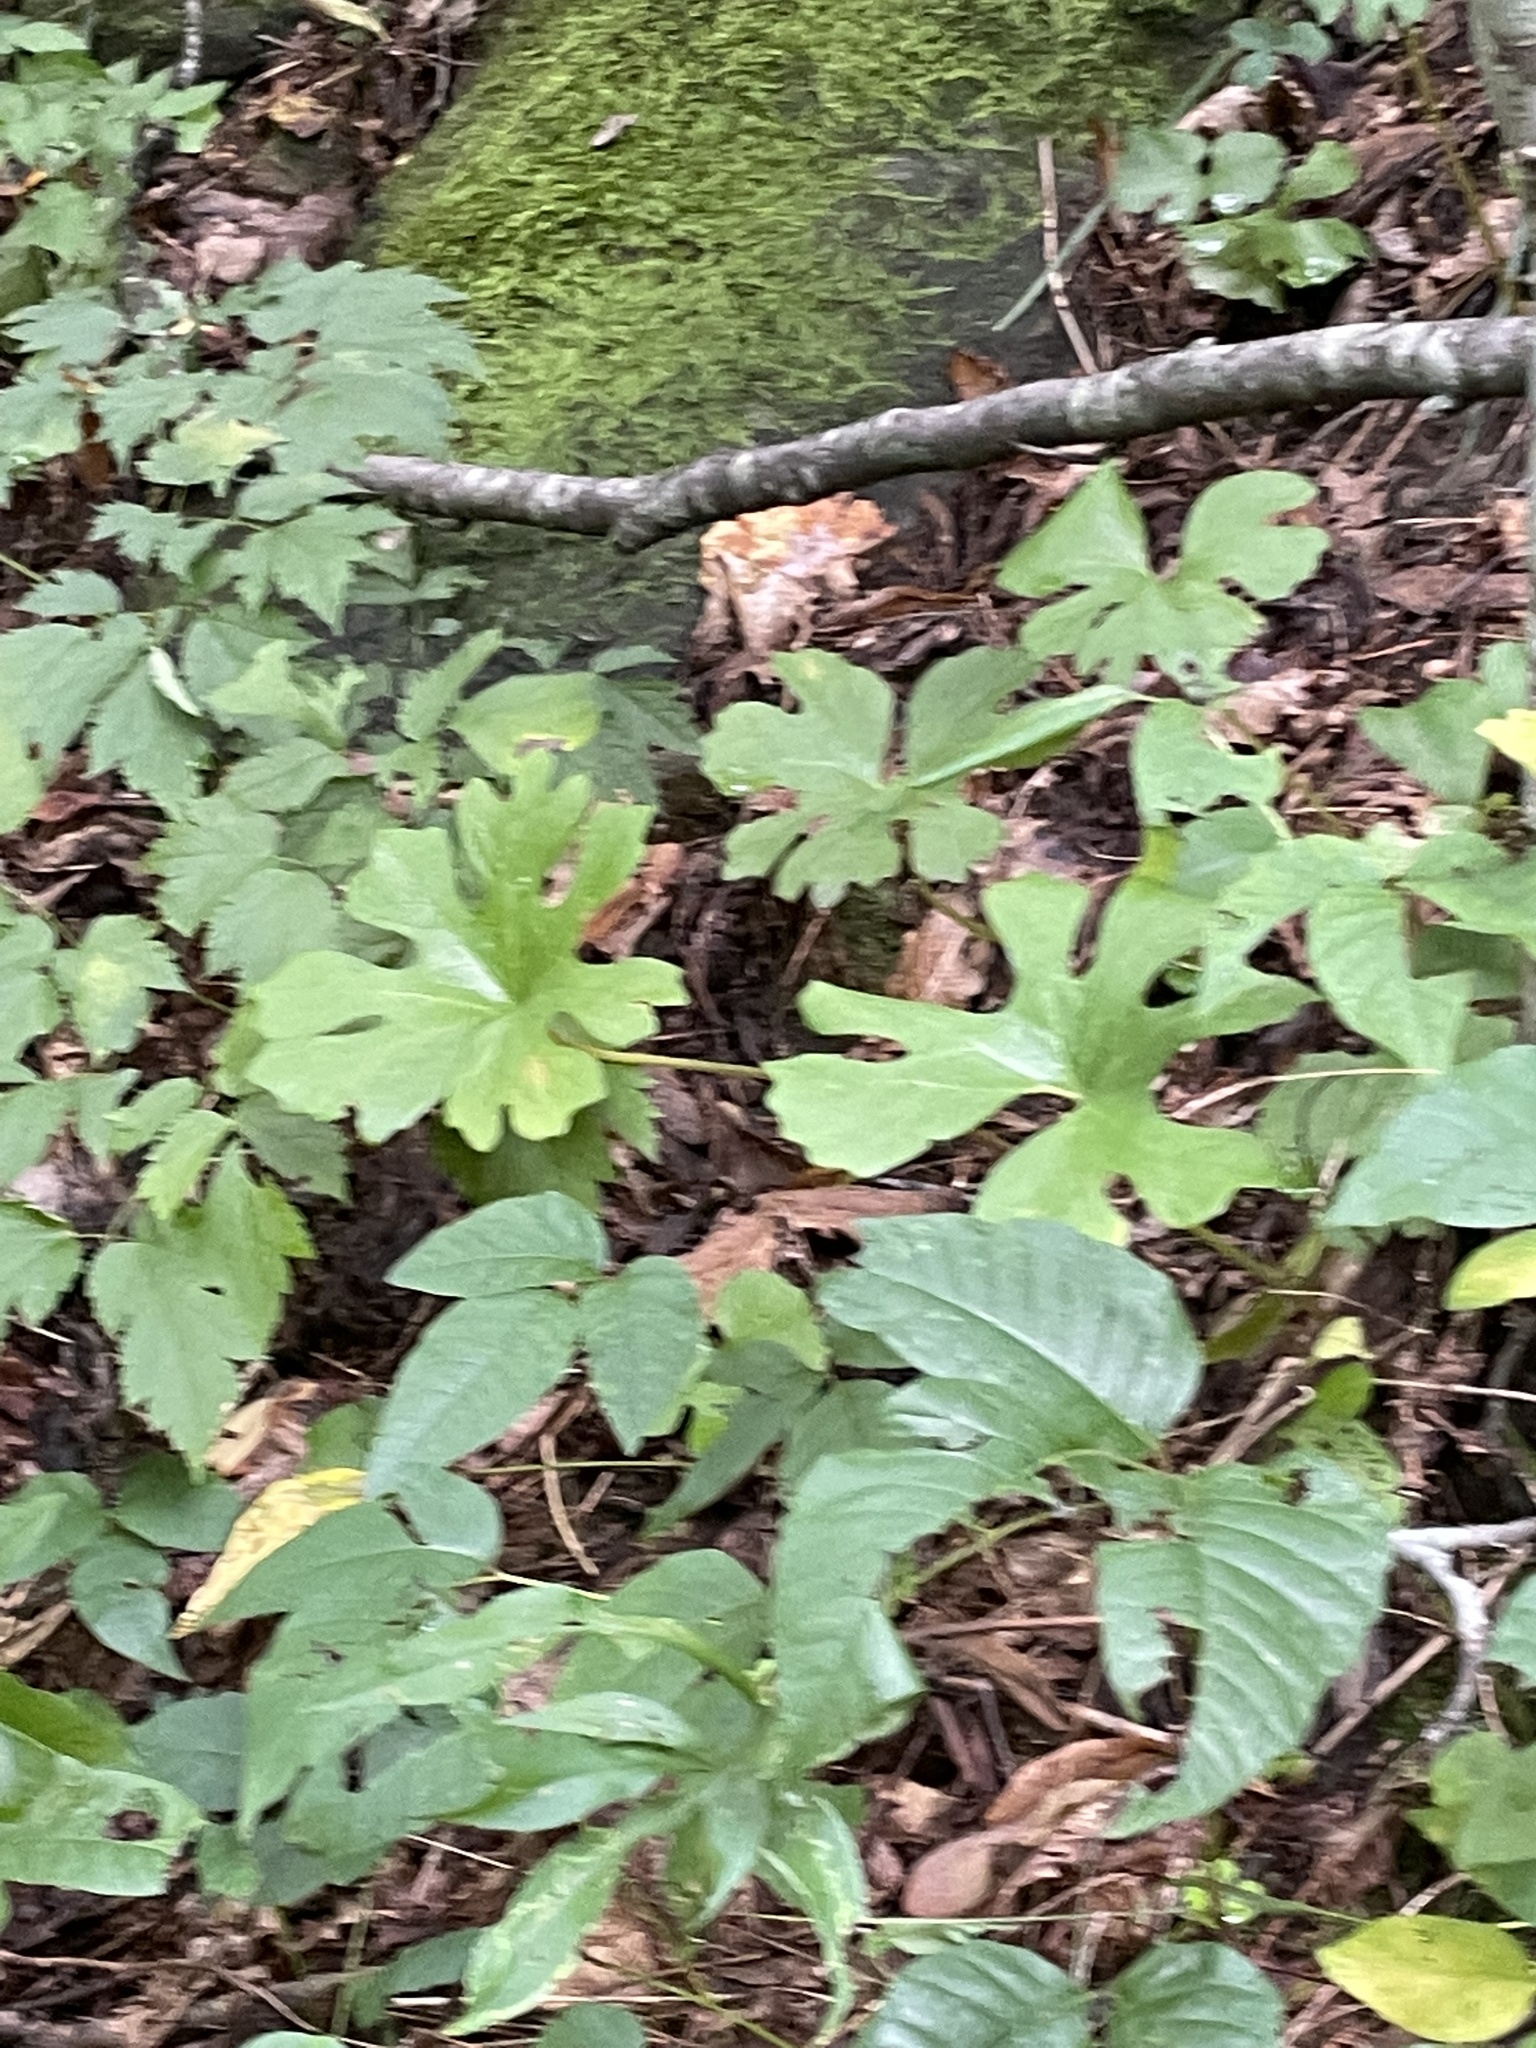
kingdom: Plantae
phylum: Tracheophyta
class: Magnoliopsida
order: Ranunculales
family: Papaveraceae
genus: Sanguinaria
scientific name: Sanguinaria canadensis
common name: Bloodroot
